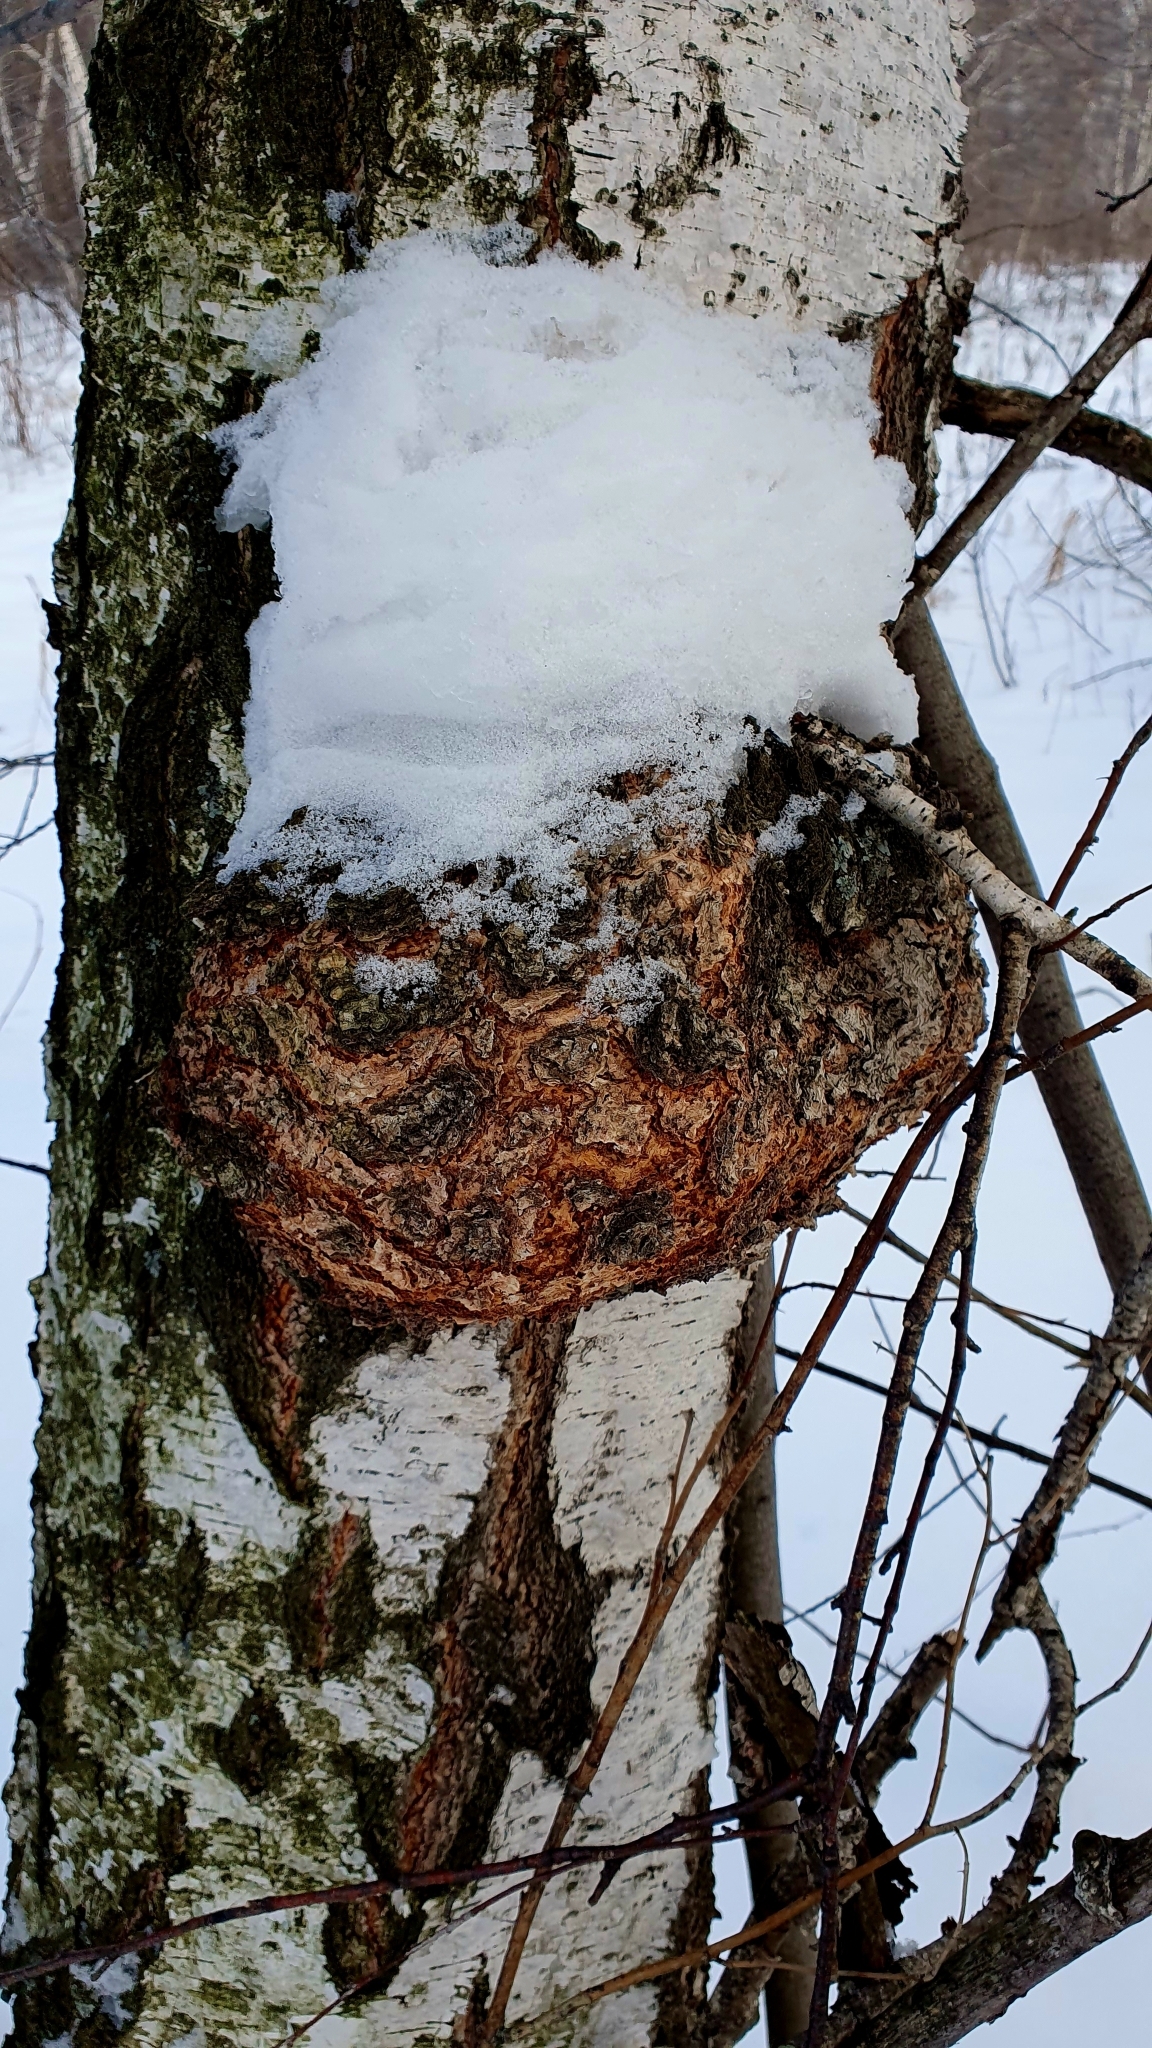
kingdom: Bacteria
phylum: Proteobacteria
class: Alphaproteobacteria
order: Rhizobiales
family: Rhizobiaceae
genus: Rhizobium
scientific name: Rhizobium Agrobacterium radiobacter
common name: Bacterial crown gall
